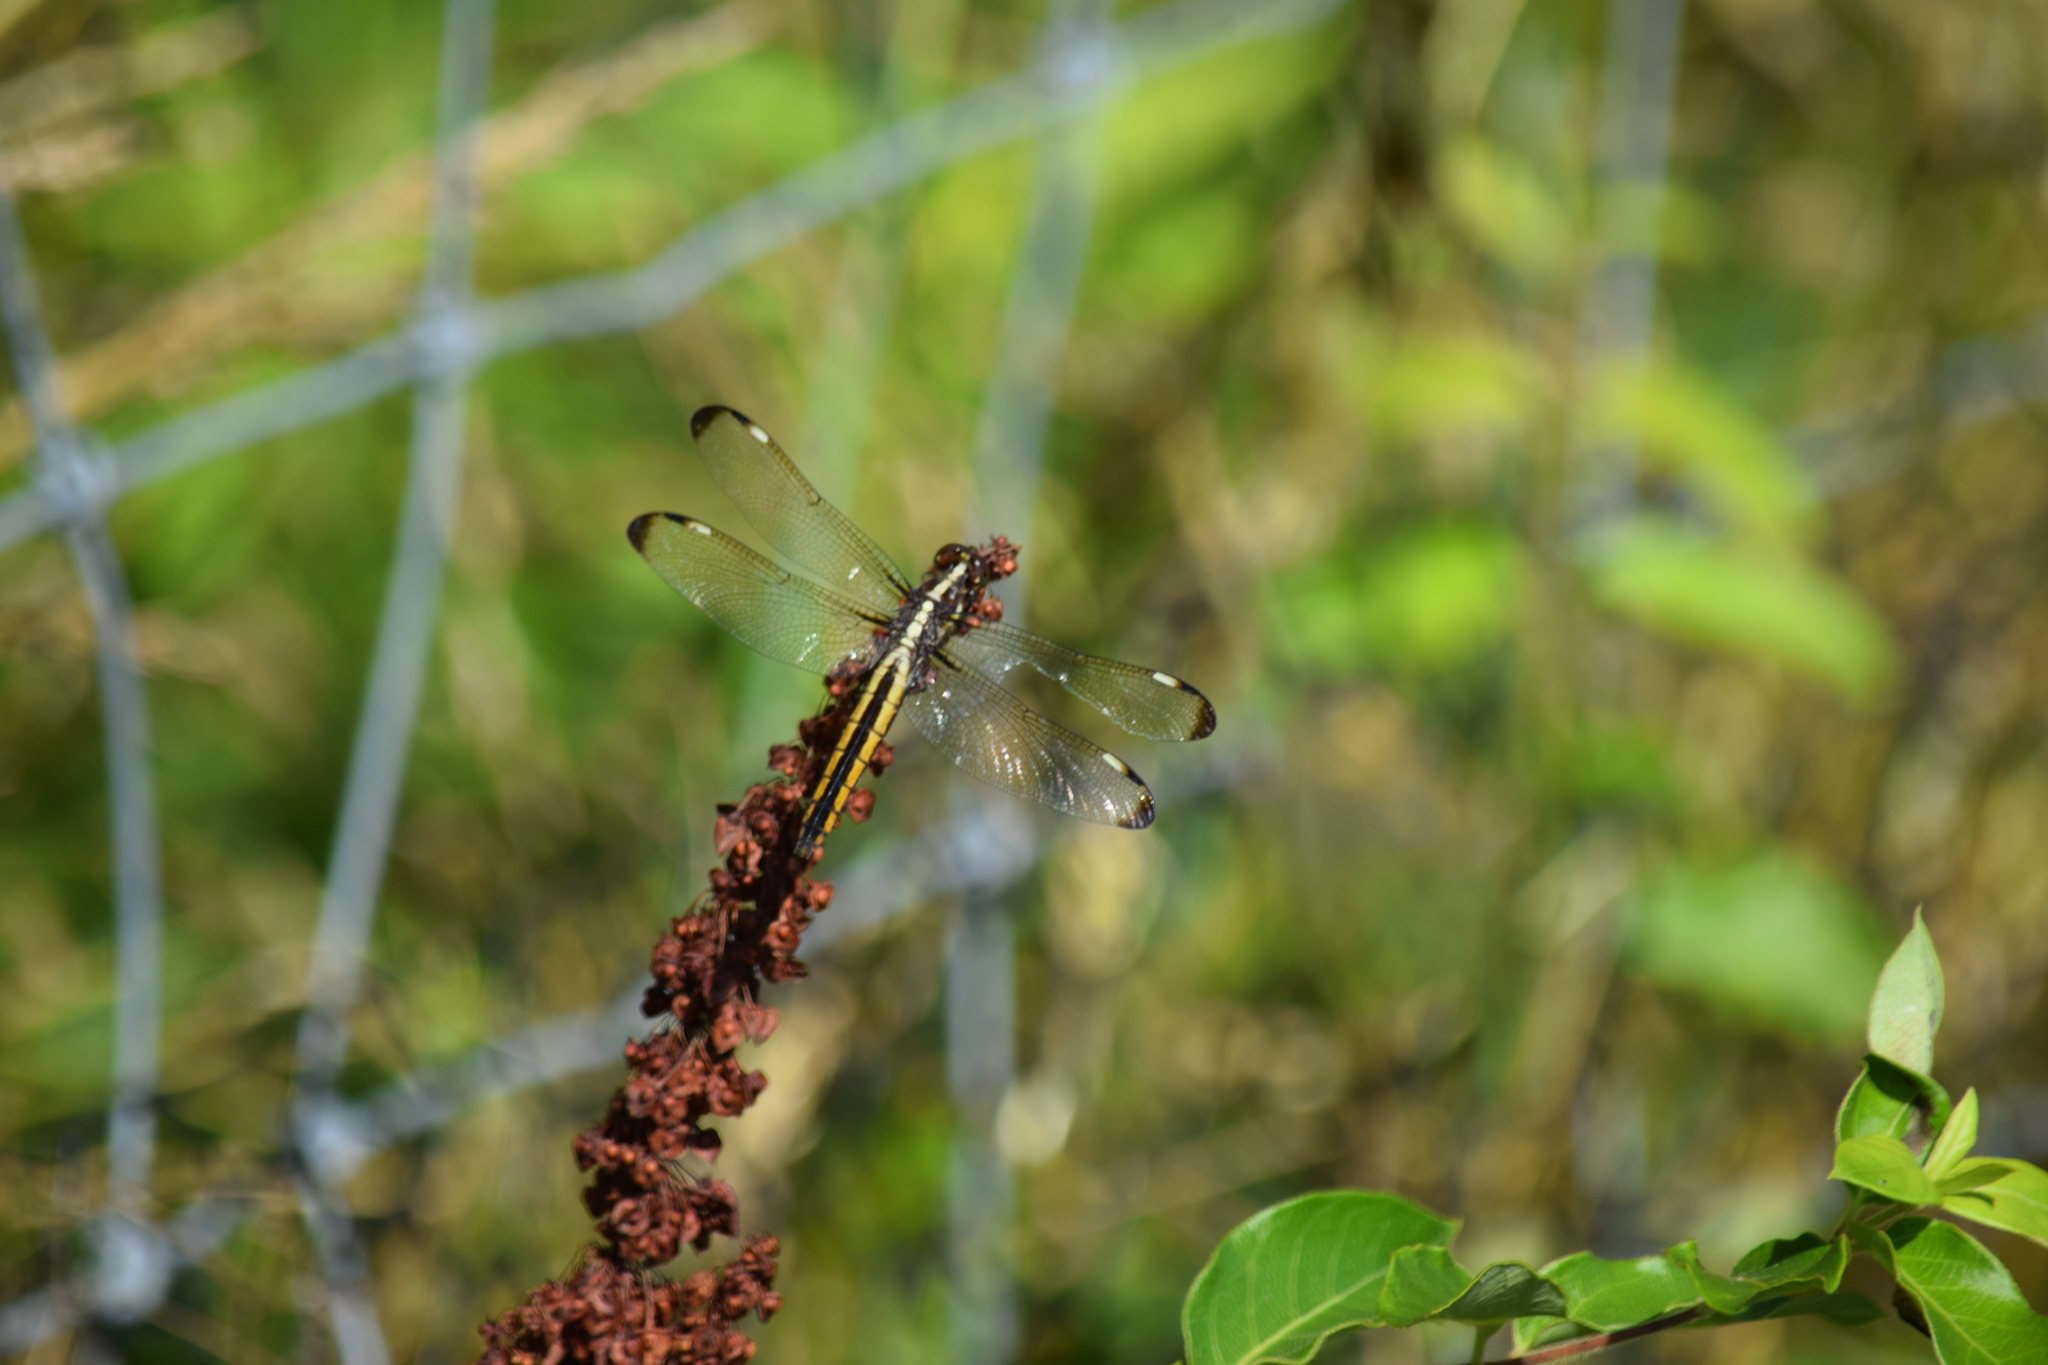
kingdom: Animalia
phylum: Arthropoda
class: Insecta
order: Odonata
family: Libellulidae
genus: Libellula
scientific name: Libellula cyanea
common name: Spangled skimmer
